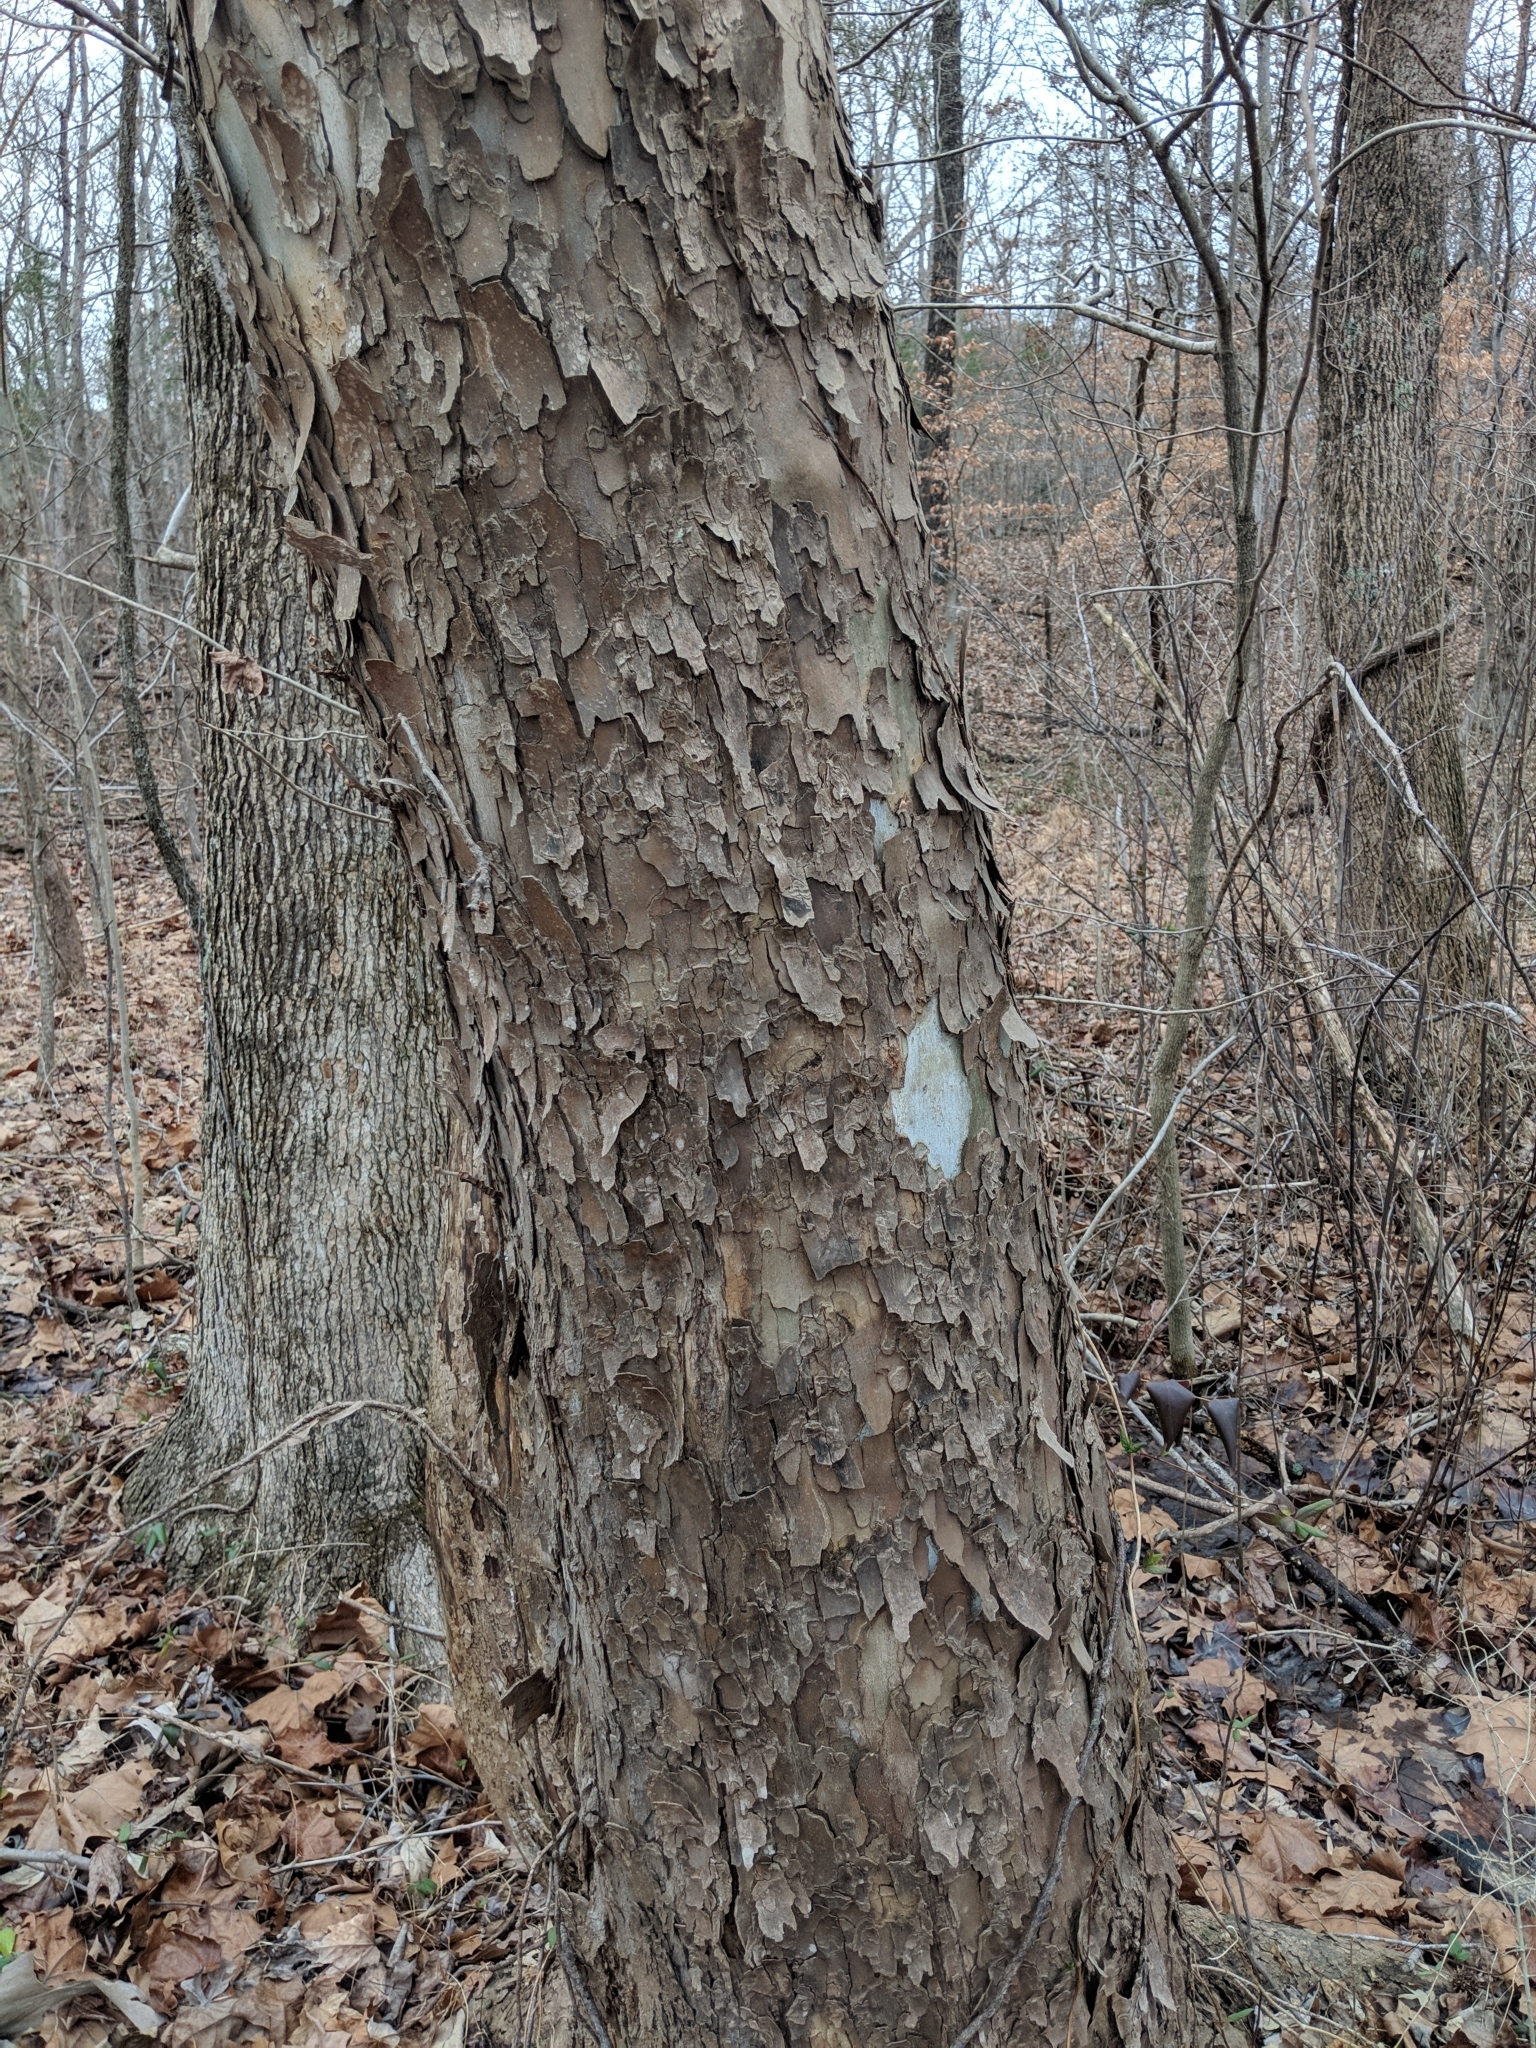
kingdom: Plantae
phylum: Tracheophyta
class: Magnoliopsida
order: Proteales
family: Platanaceae
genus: Platanus
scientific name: Platanus occidentalis
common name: American sycamore
